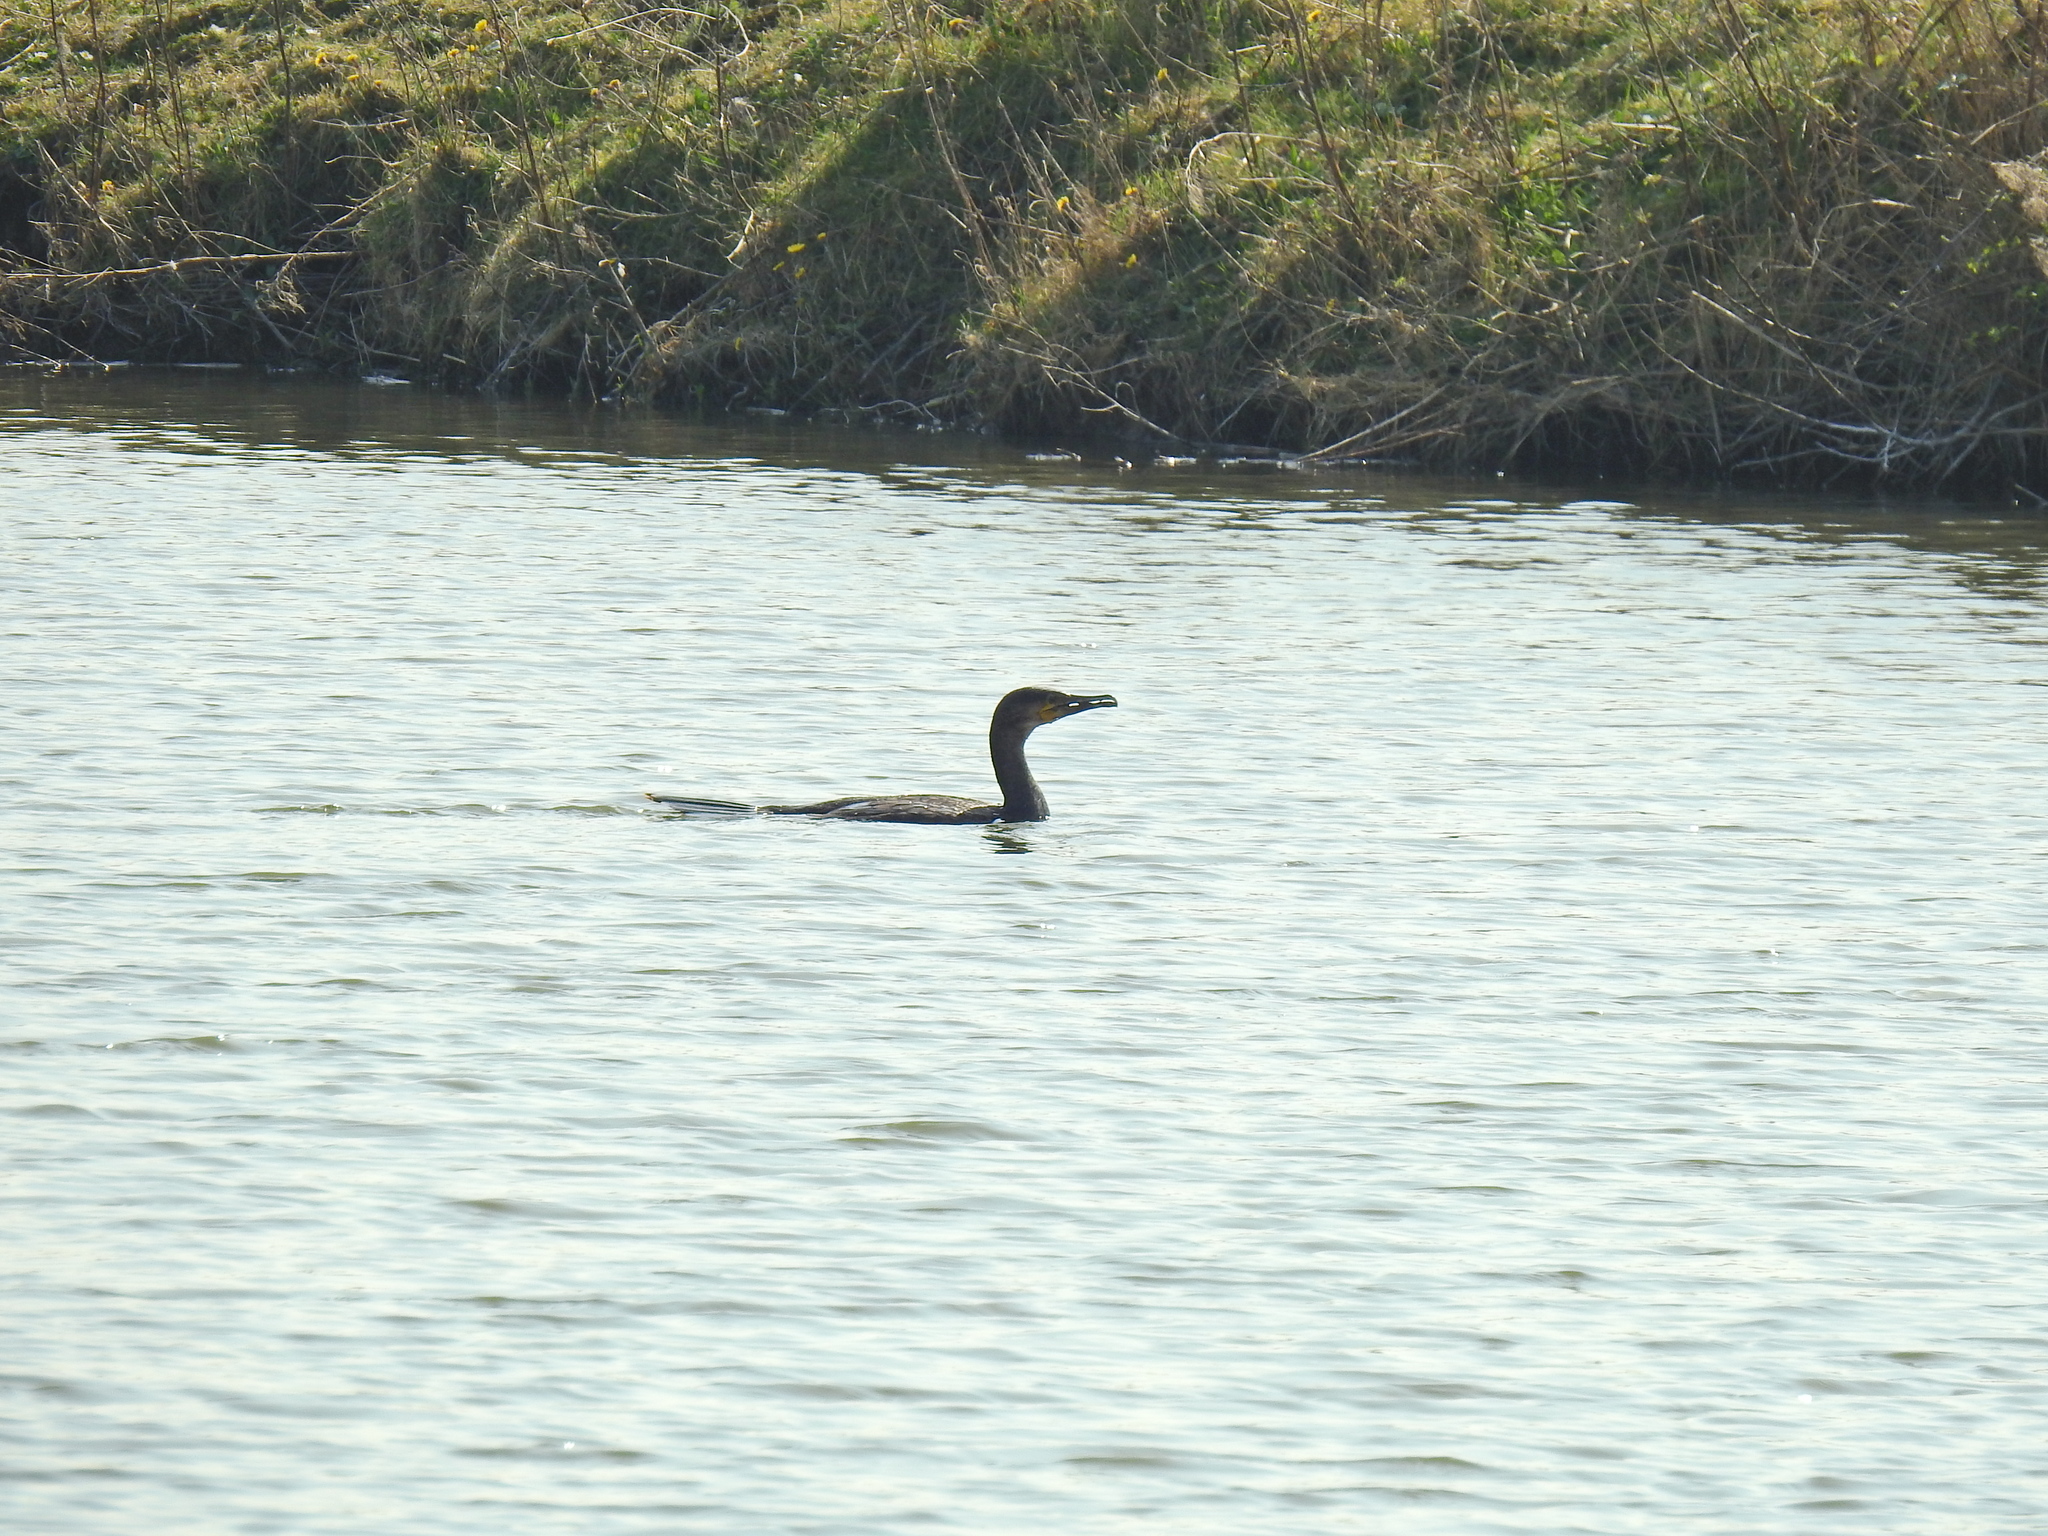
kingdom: Animalia
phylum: Chordata
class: Aves
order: Suliformes
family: Phalacrocoracidae
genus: Phalacrocorax
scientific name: Phalacrocorax carbo
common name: Great cormorant
